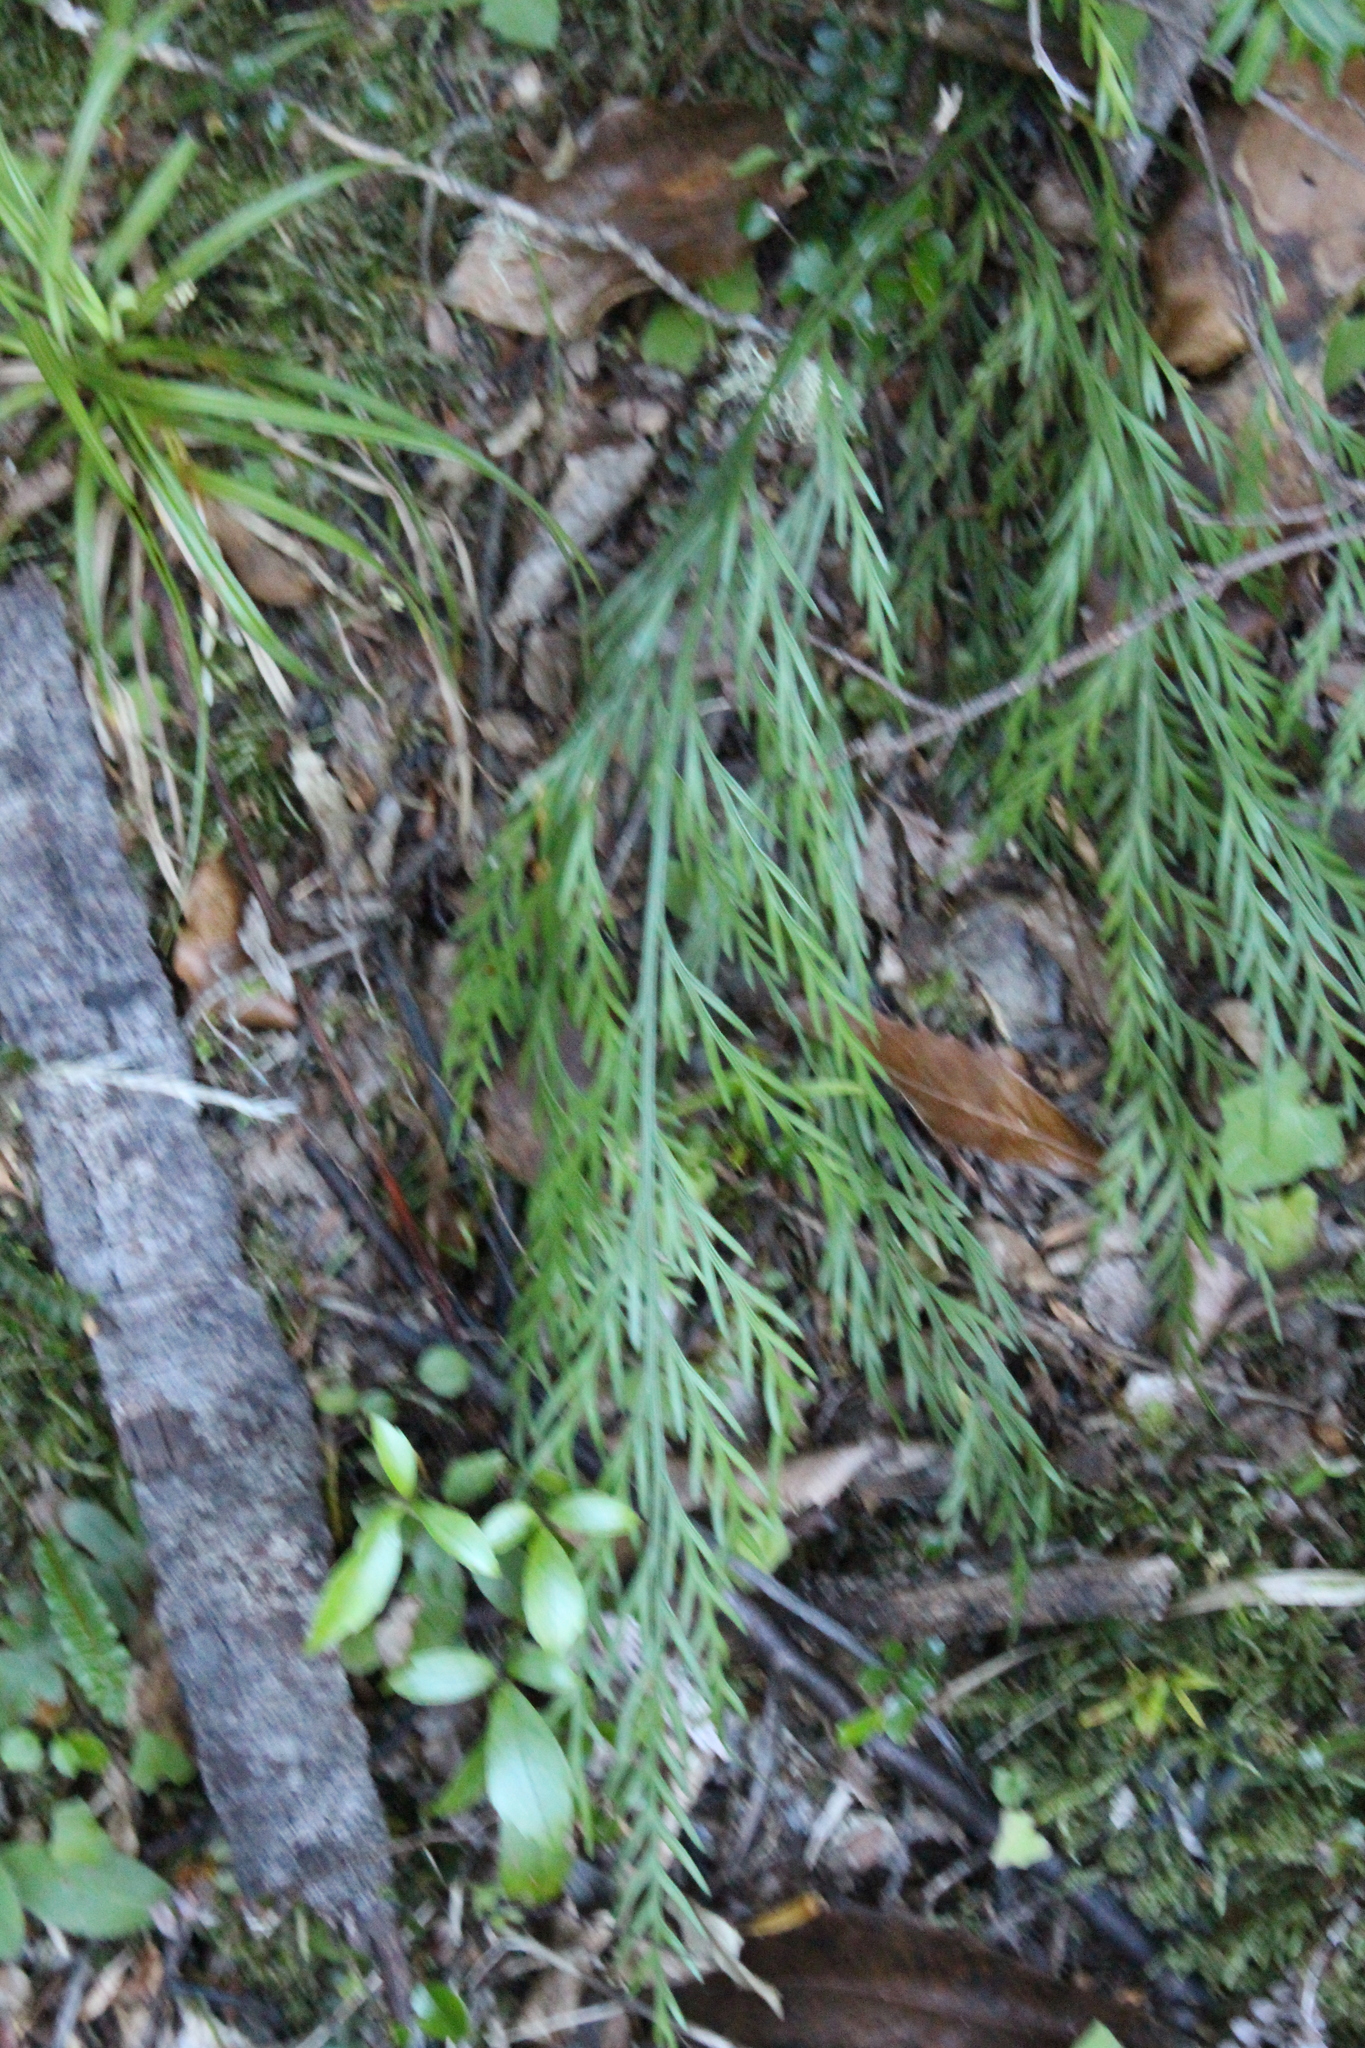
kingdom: Plantae
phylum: Tracheophyta
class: Polypodiopsida
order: Polypodiales
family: Aspleniaceae
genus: Asplenium
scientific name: Asplenium flaccidum
